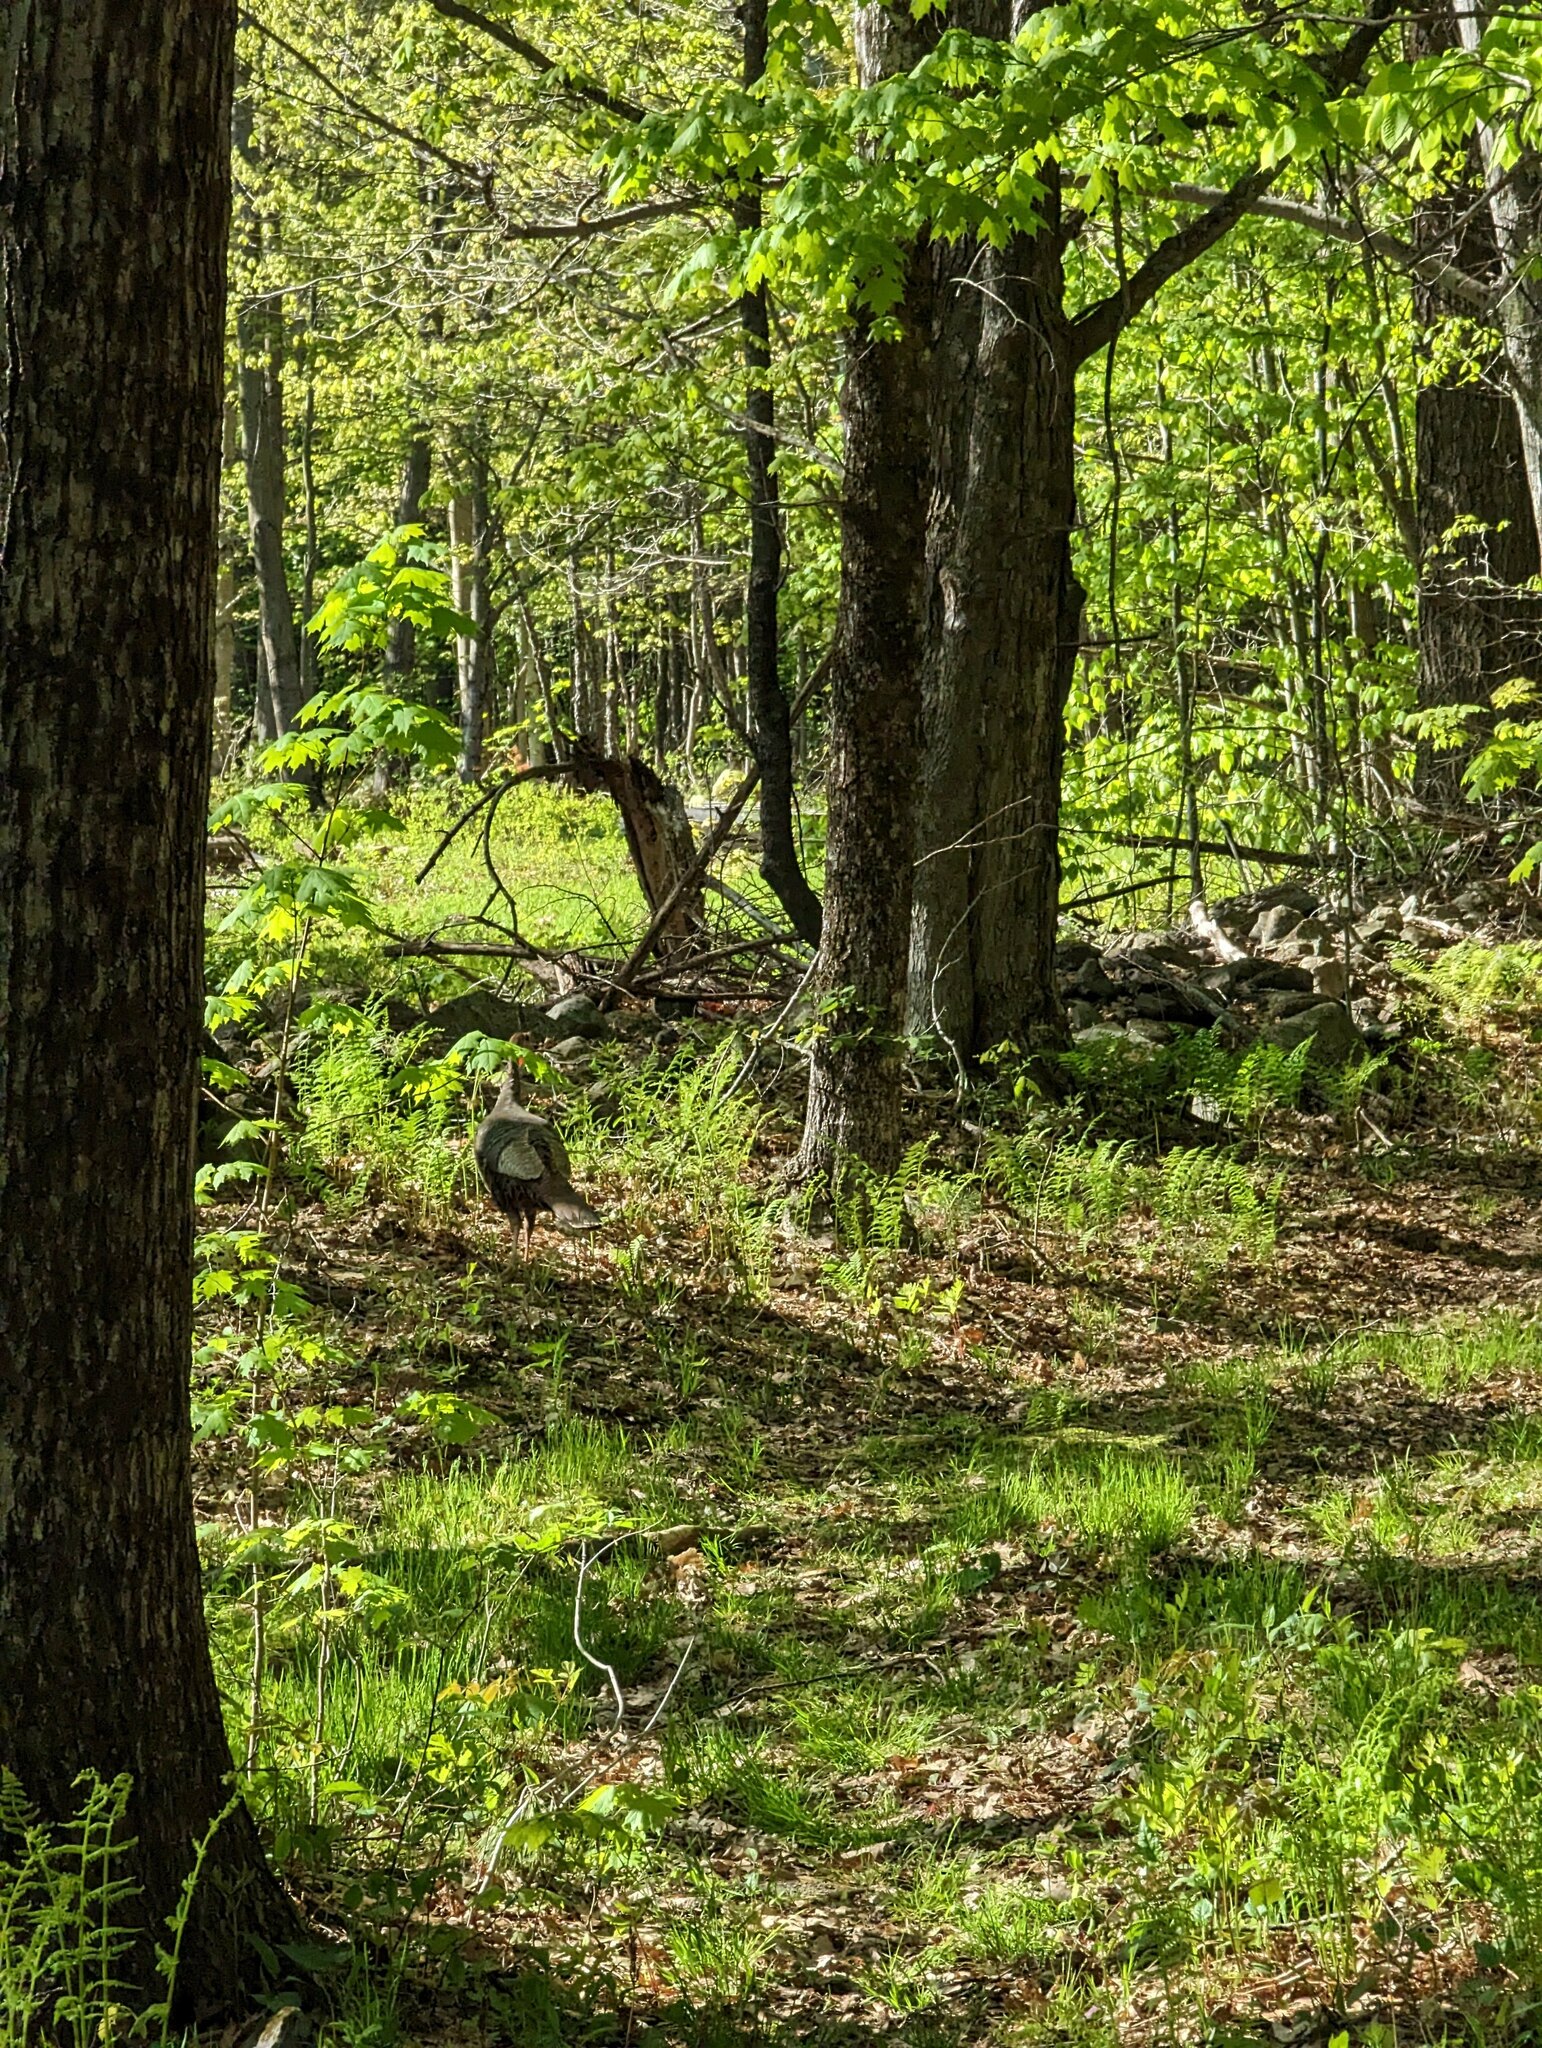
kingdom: Animalia
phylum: Chordata
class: Aves
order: Galliformes
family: Phasianidae
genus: Meleagris
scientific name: Meleagris gallopavo
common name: Wild turkey
